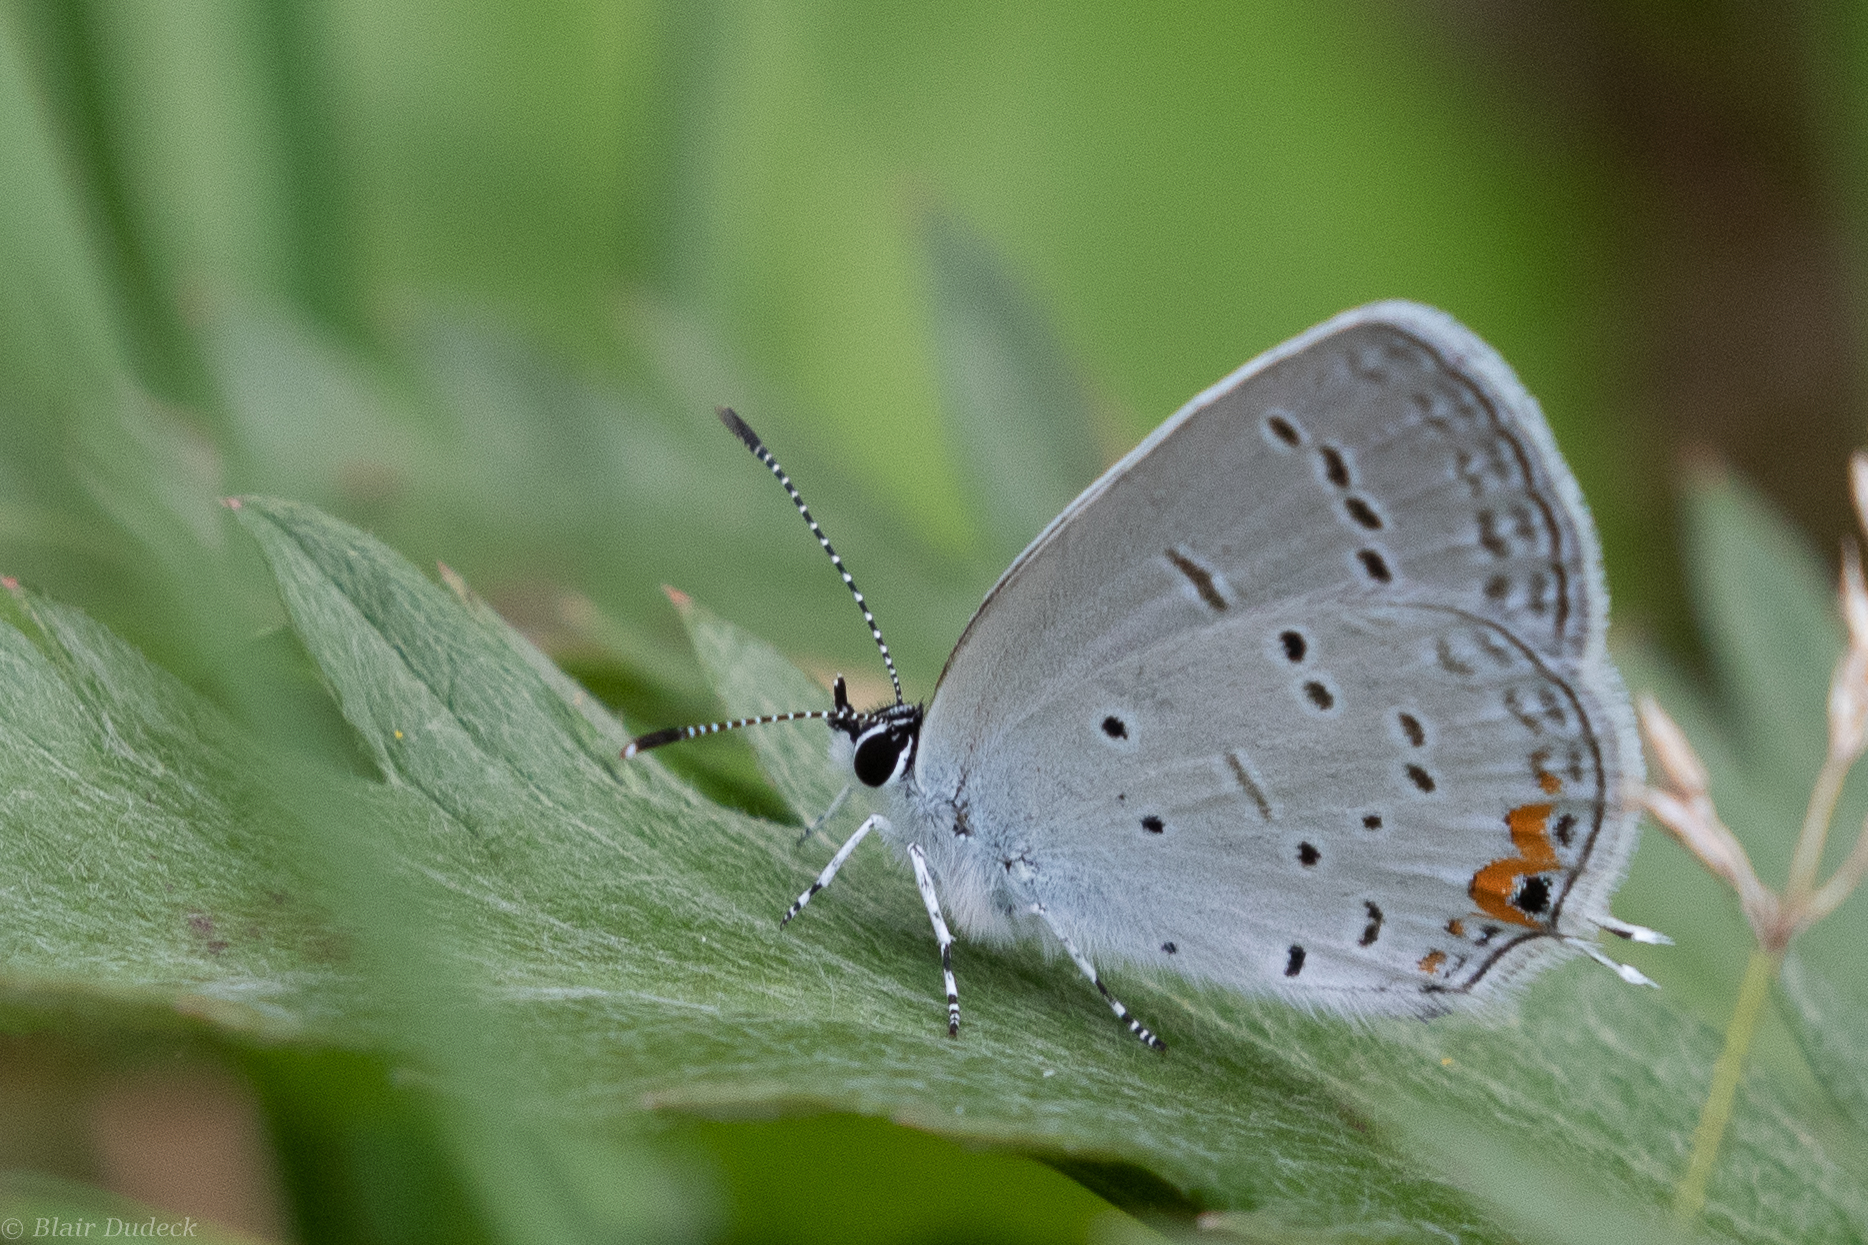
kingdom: Animalia
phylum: Arthropoda
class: Insecta
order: Lepidoptera
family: Lycaenidae
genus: Elkalyce
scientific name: Elkalyce comyntas
